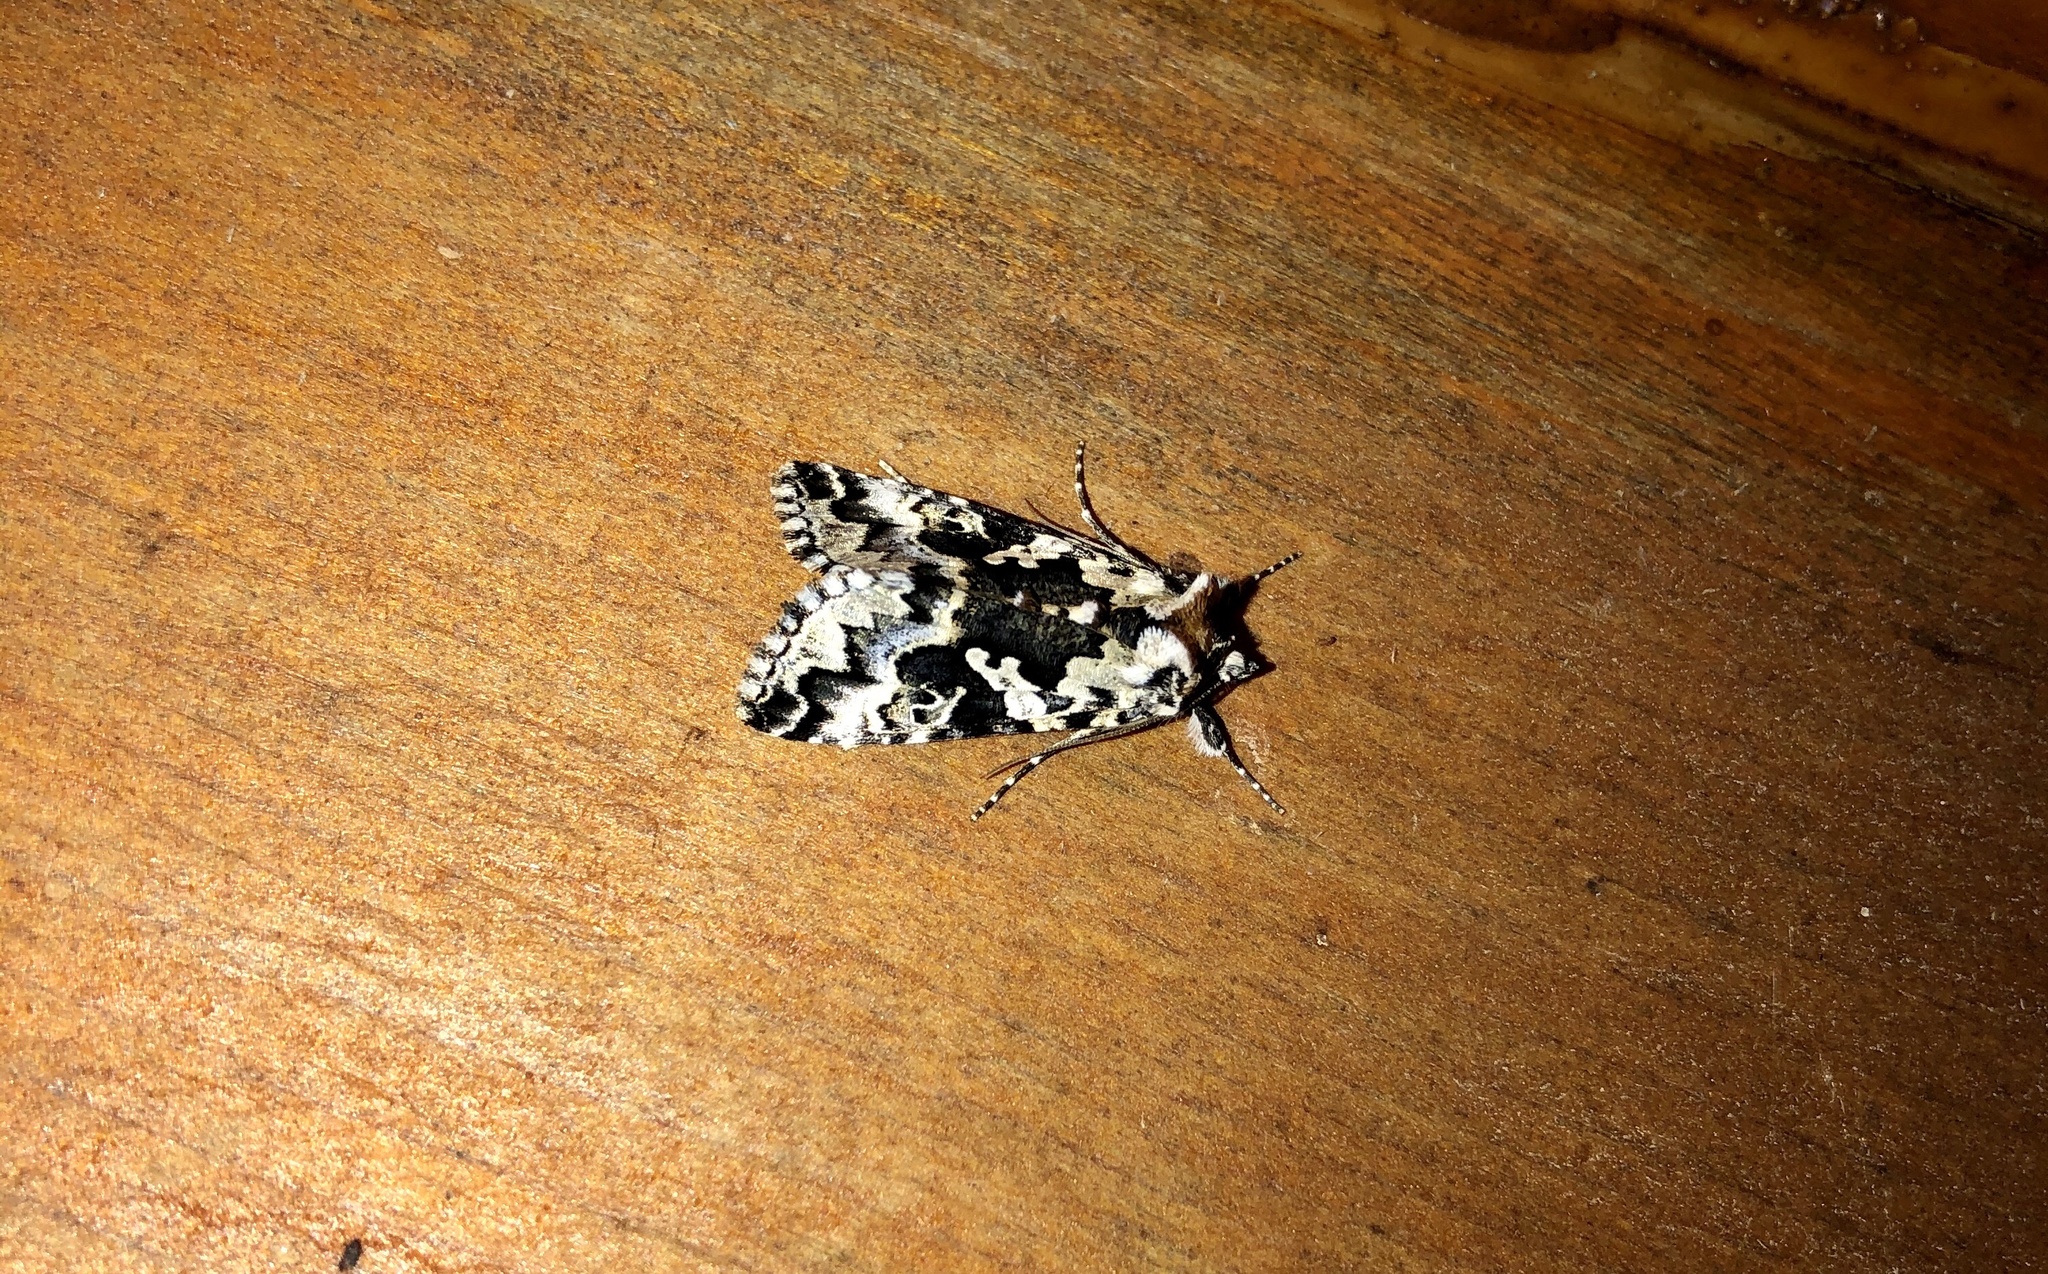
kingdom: Animalia
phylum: Arthropoda
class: Insecta
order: Lepidoptera
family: Noctuidae
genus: Syngrapha
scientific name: Syngrapha rectangula
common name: Angulated cutworm
